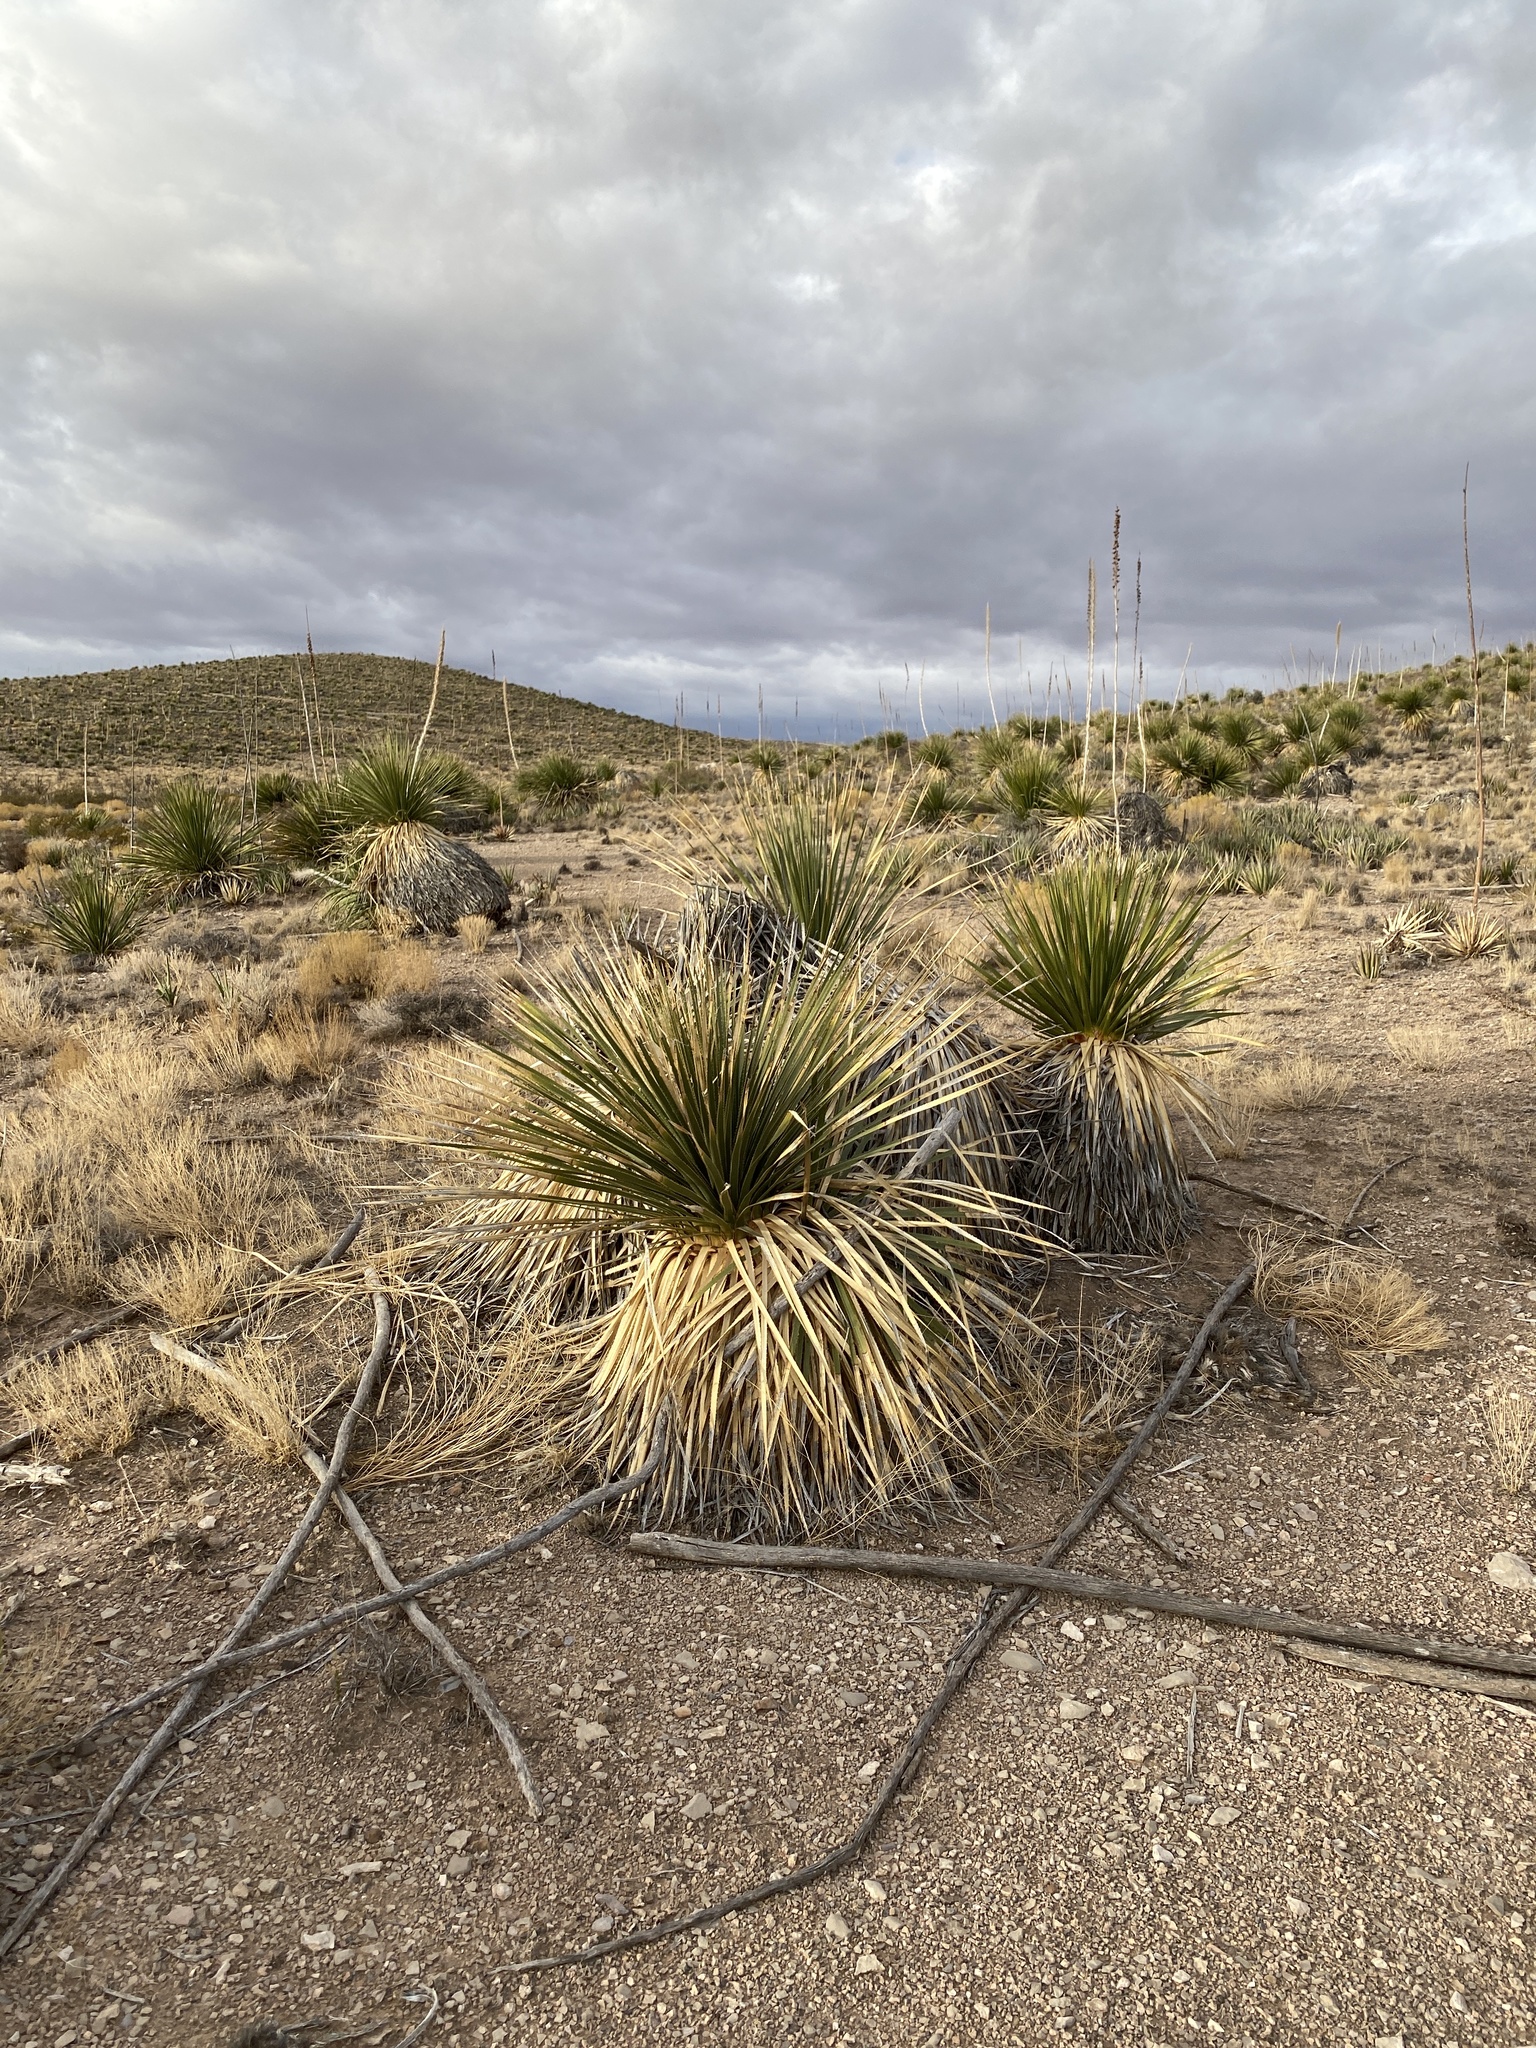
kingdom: Plantae
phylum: Tracheophyta
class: Liliopsida
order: Asparagales
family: Asparagaceae
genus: Dasylirion
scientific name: Dasylirion wheeleri
